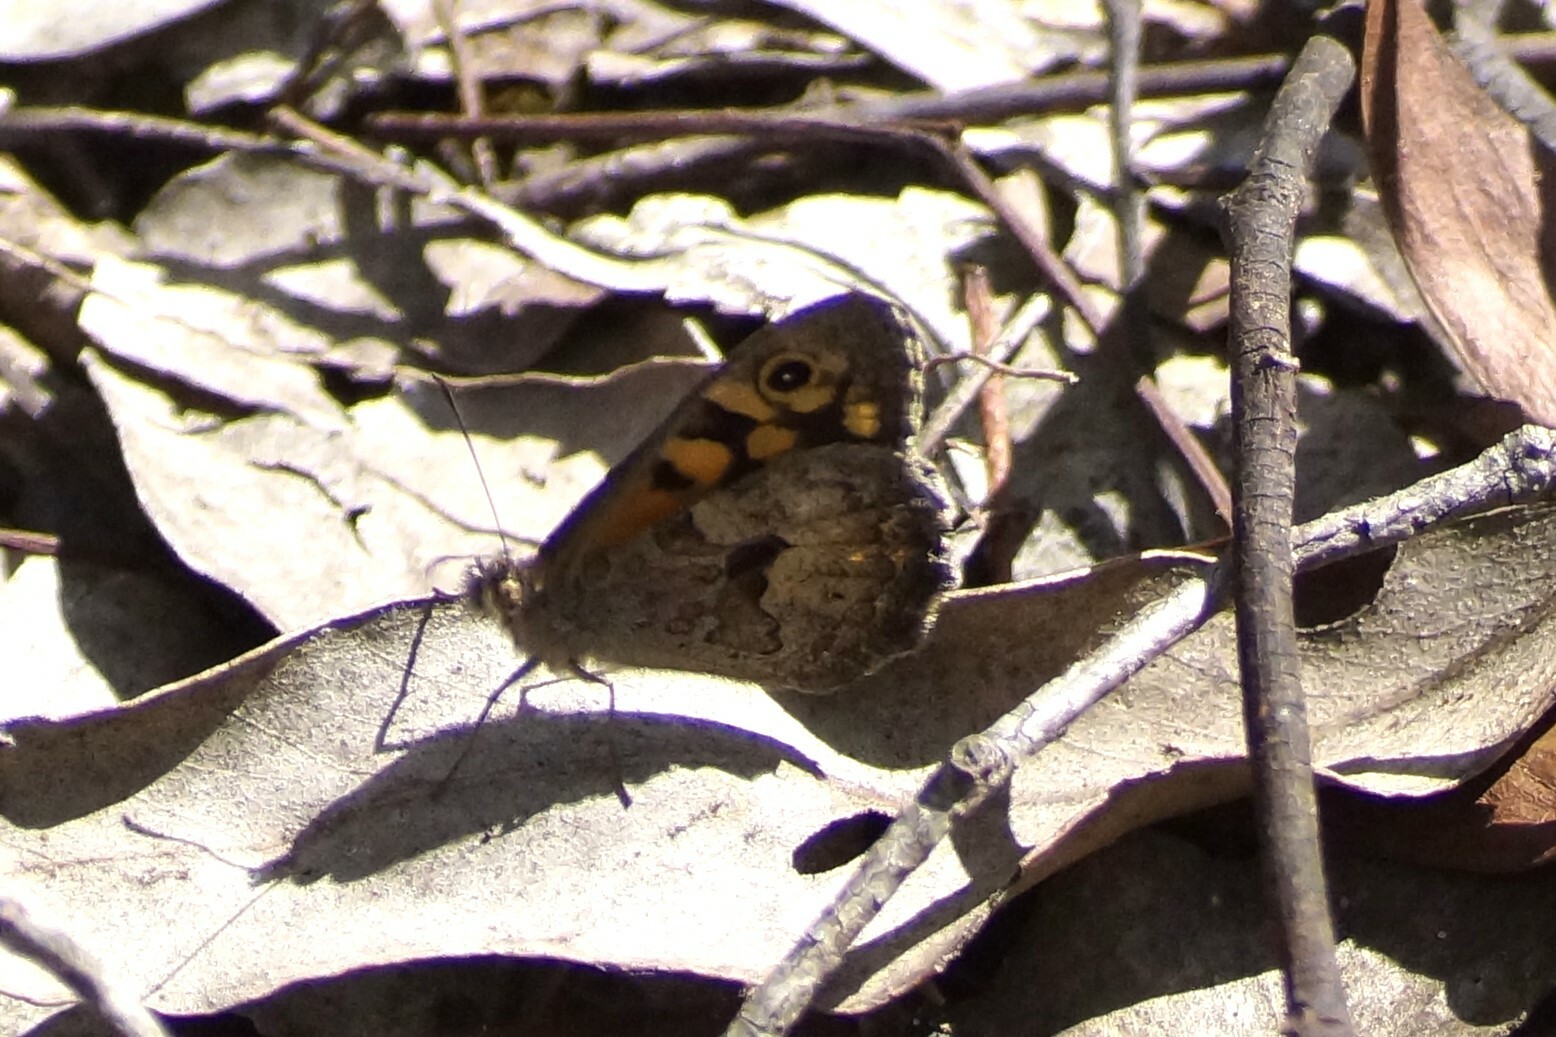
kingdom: Animalia
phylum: Arthropoda
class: Insecta
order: Lepidoptera
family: Nymphalidae
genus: Geitoneura
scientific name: Geitoneura klugii
